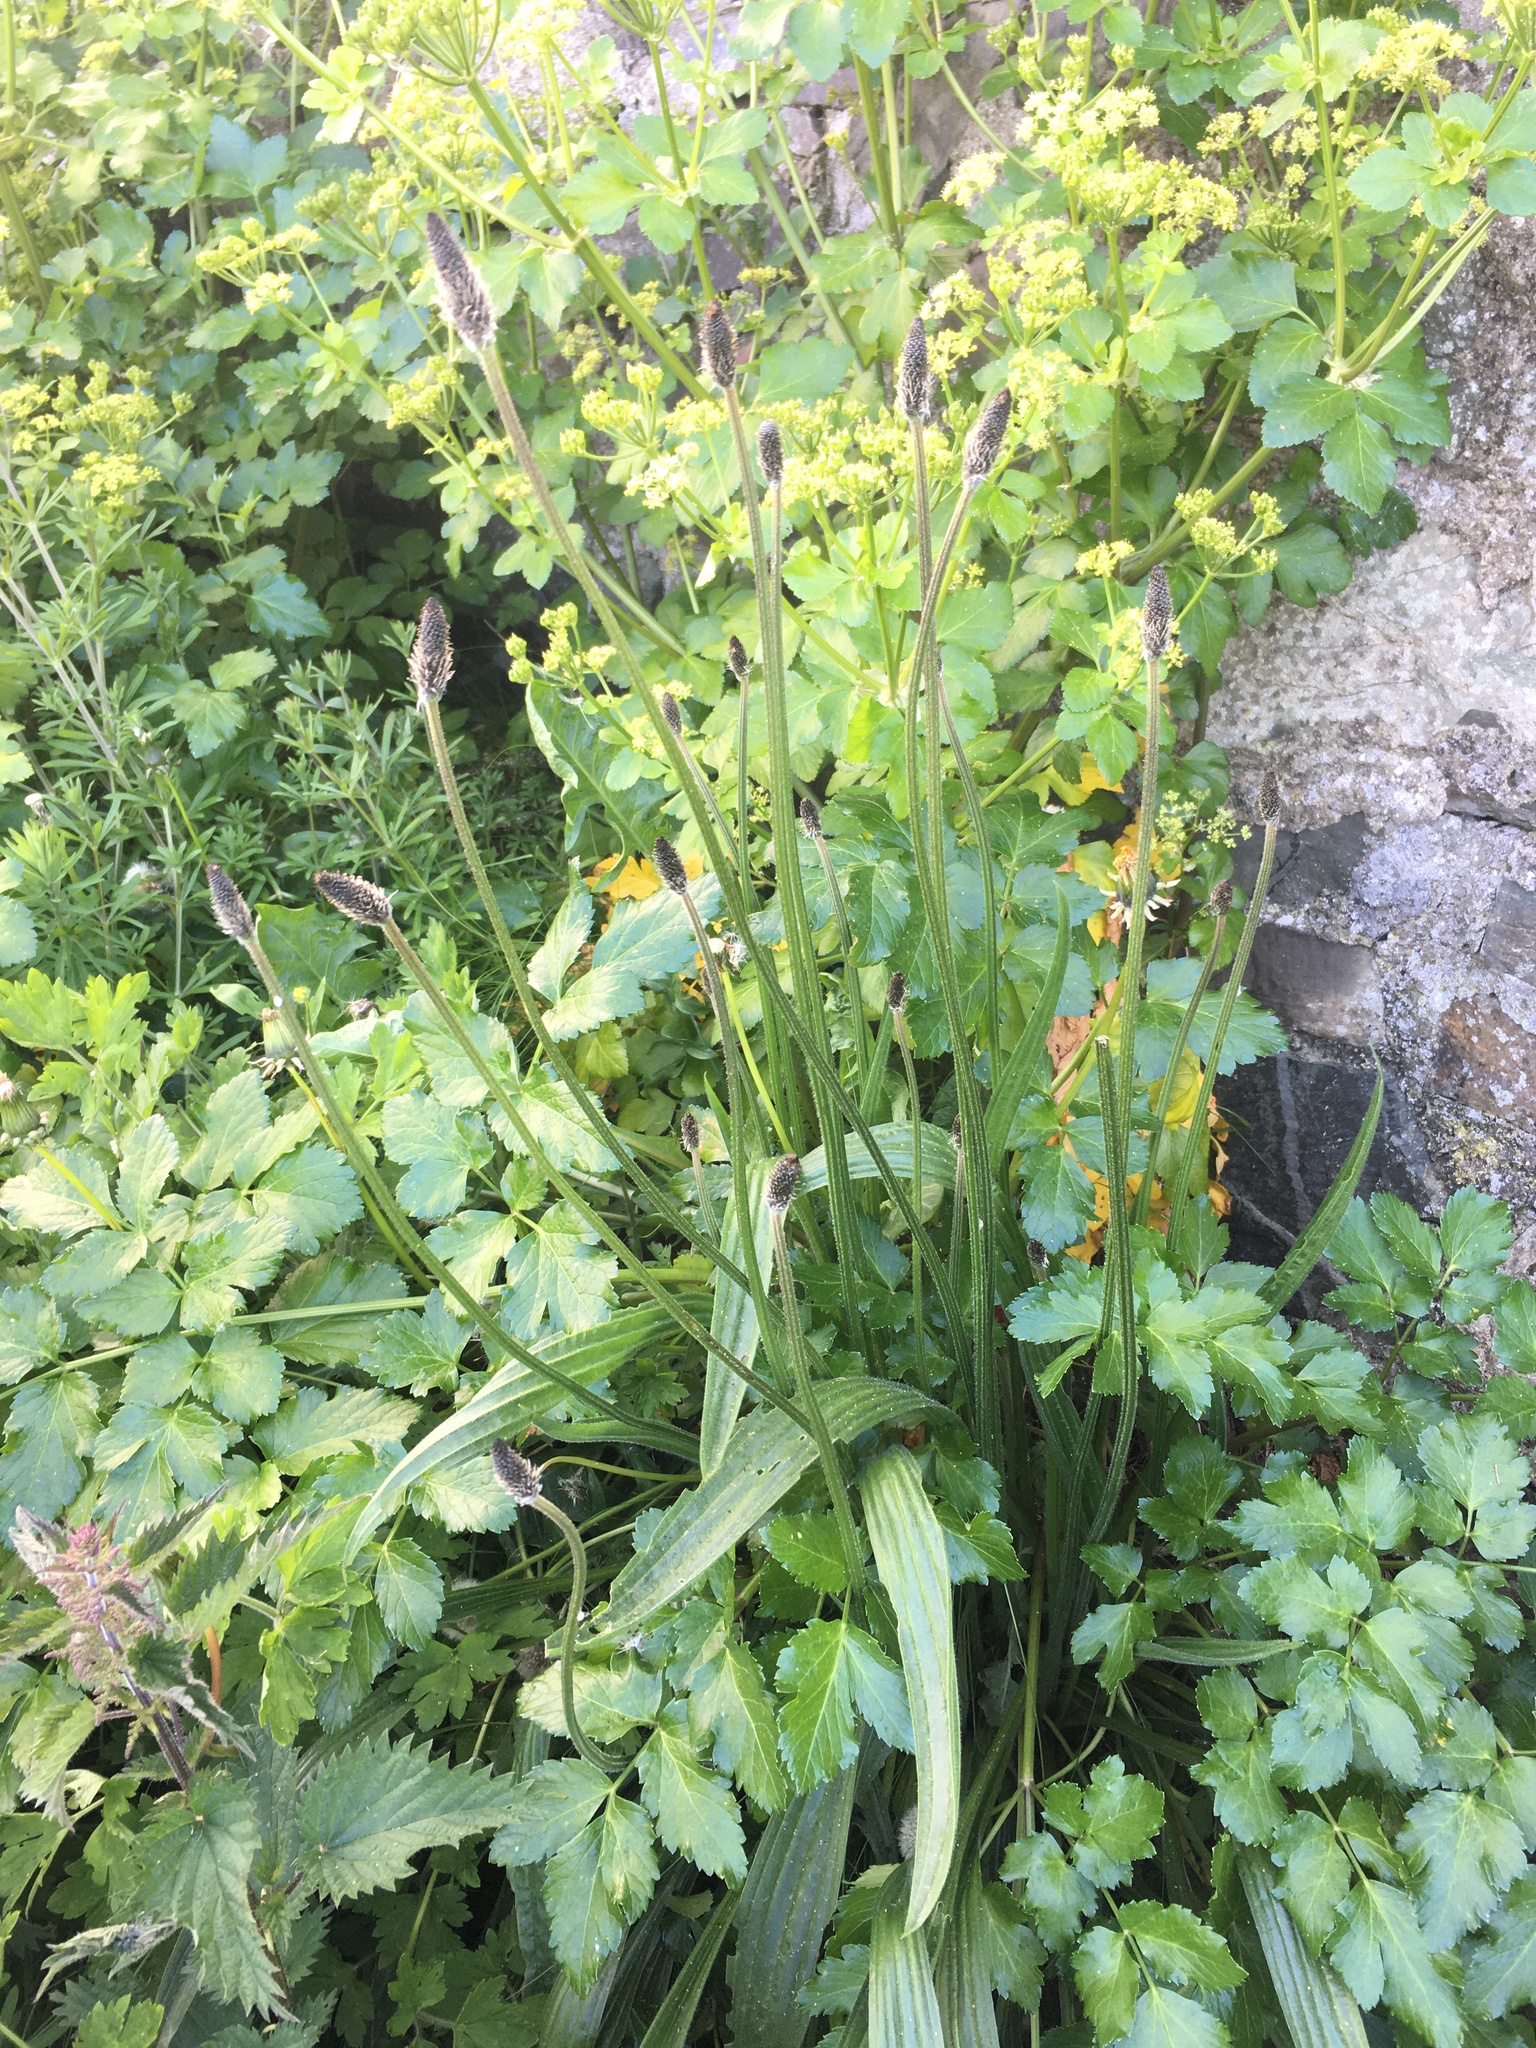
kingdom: Plantae
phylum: Tracheophyta
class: Magnoliopsida
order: Lamiales
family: Plantaginaceae
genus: Plantago
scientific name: Plantago lanceolata
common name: Ribwort plantain
